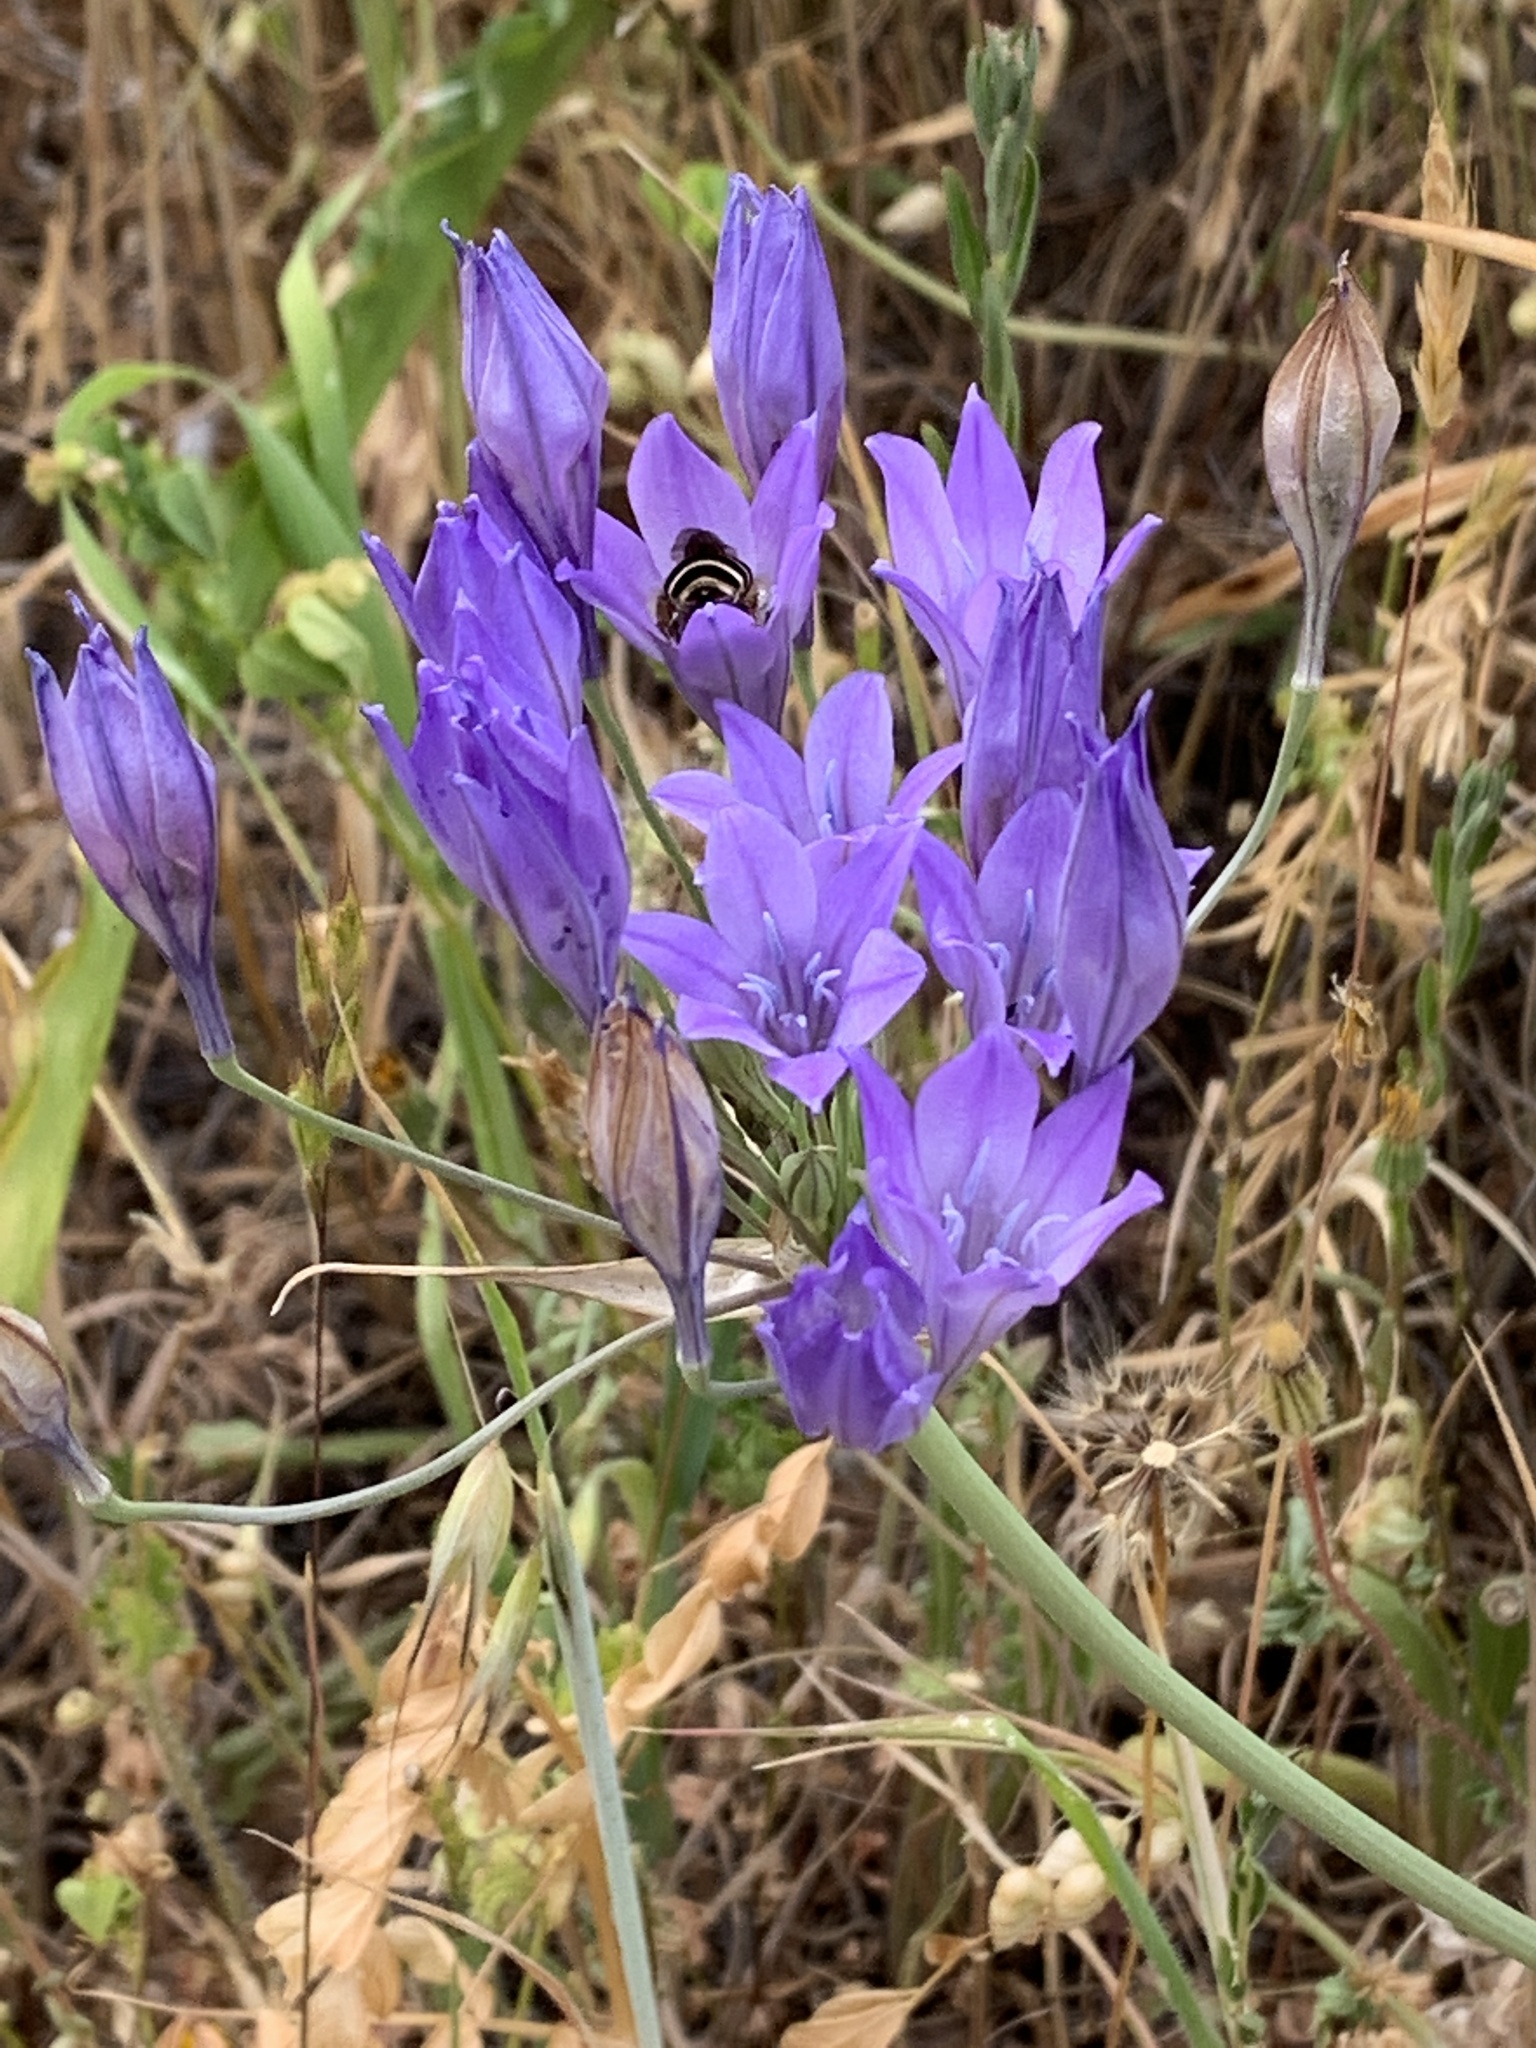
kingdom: Plantae
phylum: Tracheophyta
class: Liliopsida
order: Asparagales
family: Asparagaceae
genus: Triteleia
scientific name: Triteleia laxa
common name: Triplet-lily
